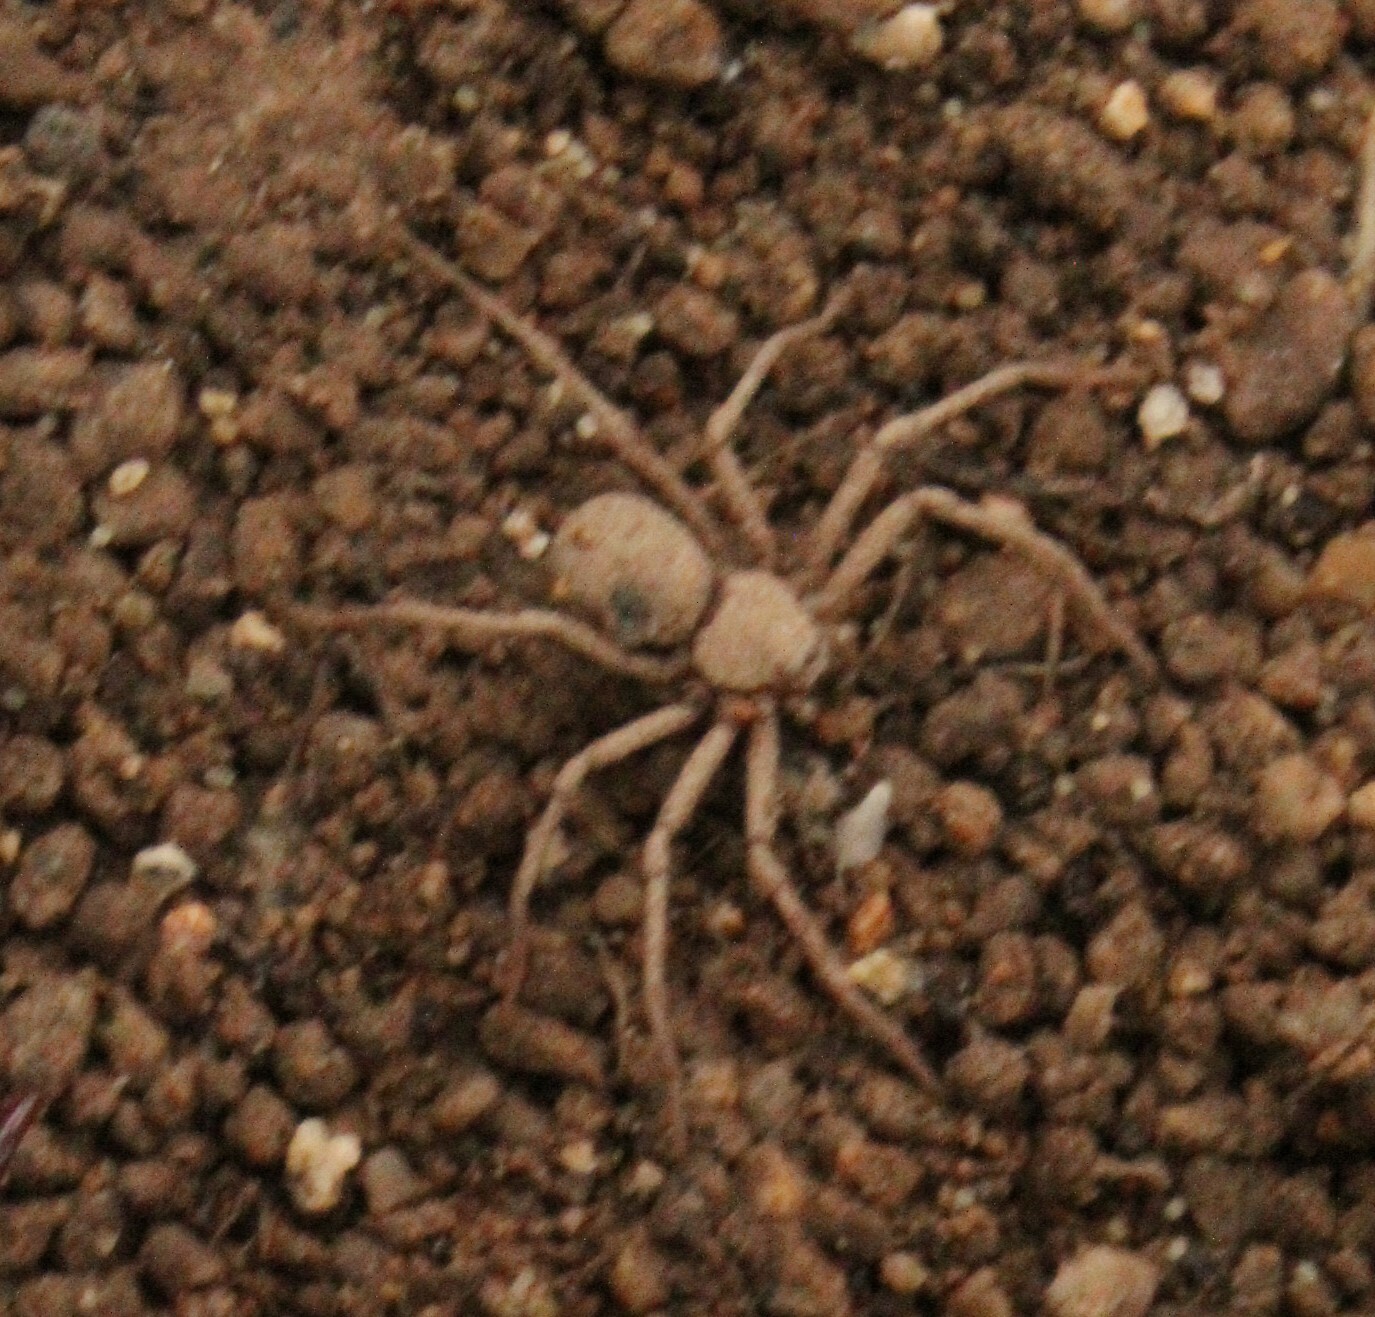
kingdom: Animalia
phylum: Arthropoda
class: Arachnida
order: Araneae
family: Sicariidae
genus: Sicarius
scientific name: Sicarius thomisoides
